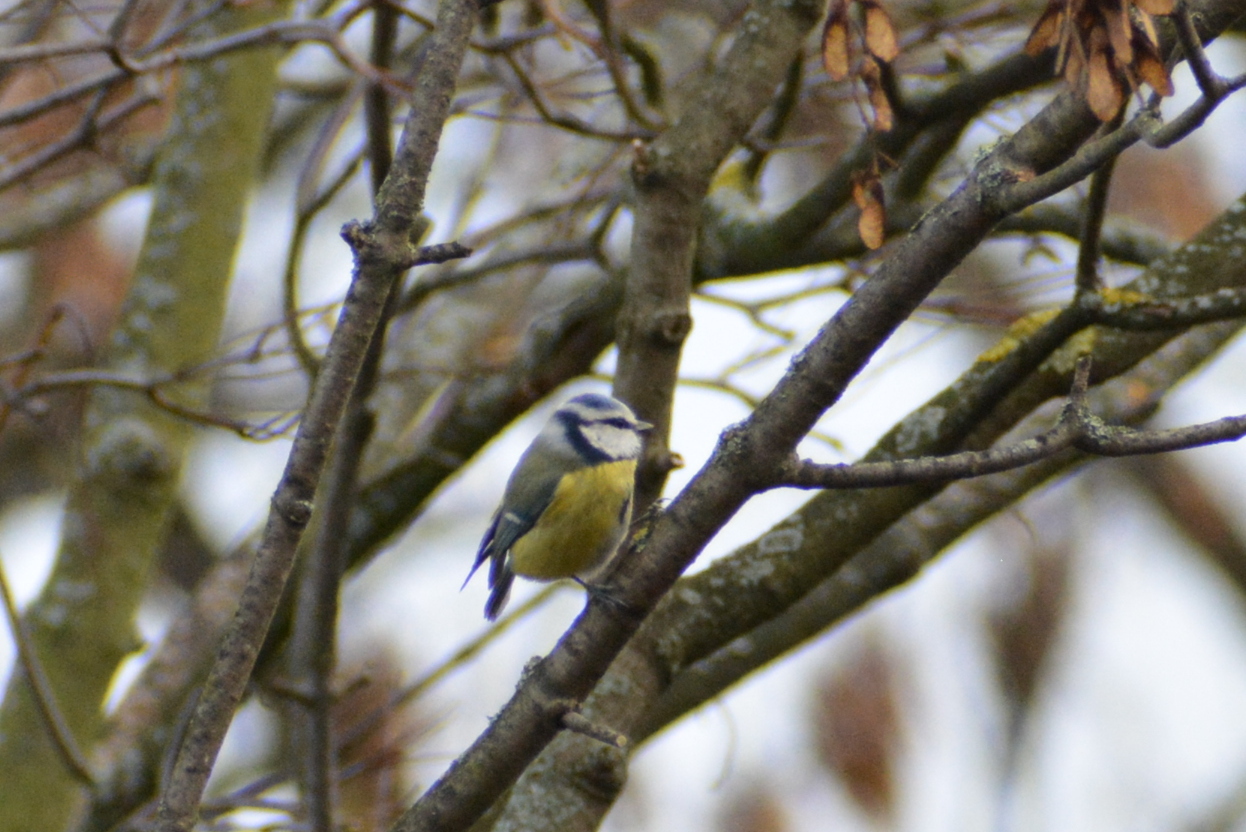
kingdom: Animalia
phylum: Chordata
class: Aves
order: Passeriformes
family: Paridae
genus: Cyanistes
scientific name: Cyanistes caeruleus
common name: Eurasian blue tit
